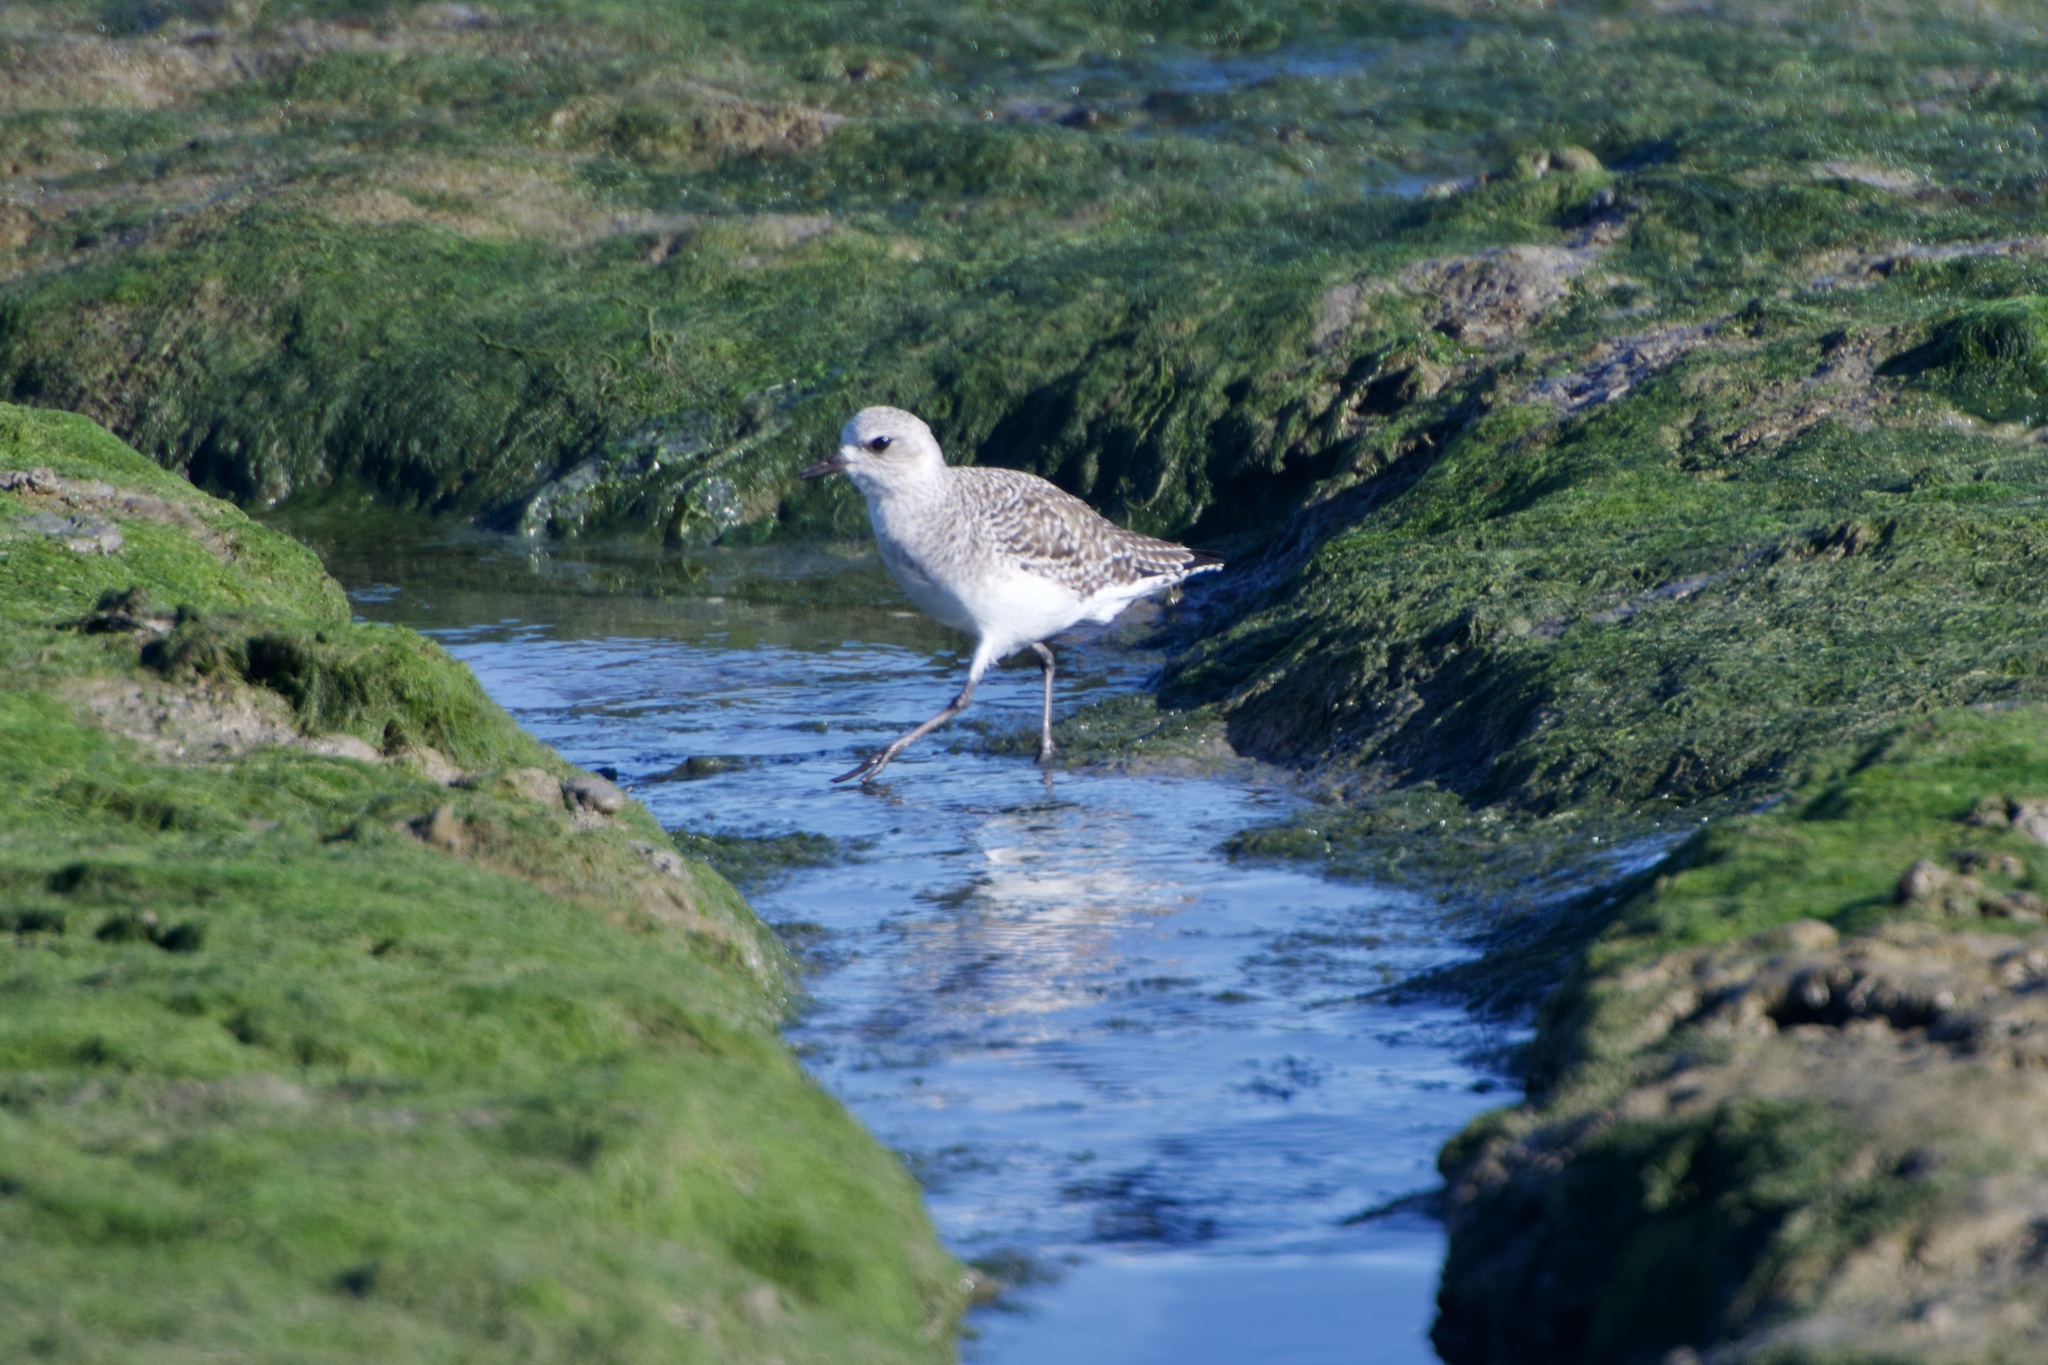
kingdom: Animalia
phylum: Chordata
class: Aves
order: Charadriiformes
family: Charadriidae
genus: Pluvialis
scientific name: Pluvialis squatarola
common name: Grey plover
